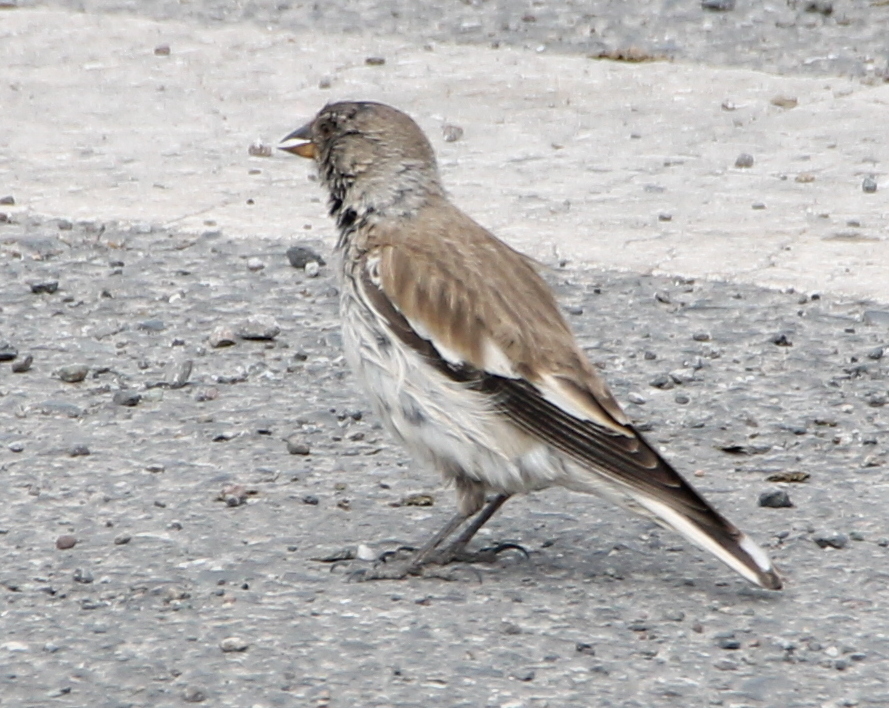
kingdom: Animalia
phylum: Chordata
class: Aves
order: Passeriformes
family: Passeridae
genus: Montifringilla
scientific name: Montifringilla nivalis
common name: White-winged snowfinch
